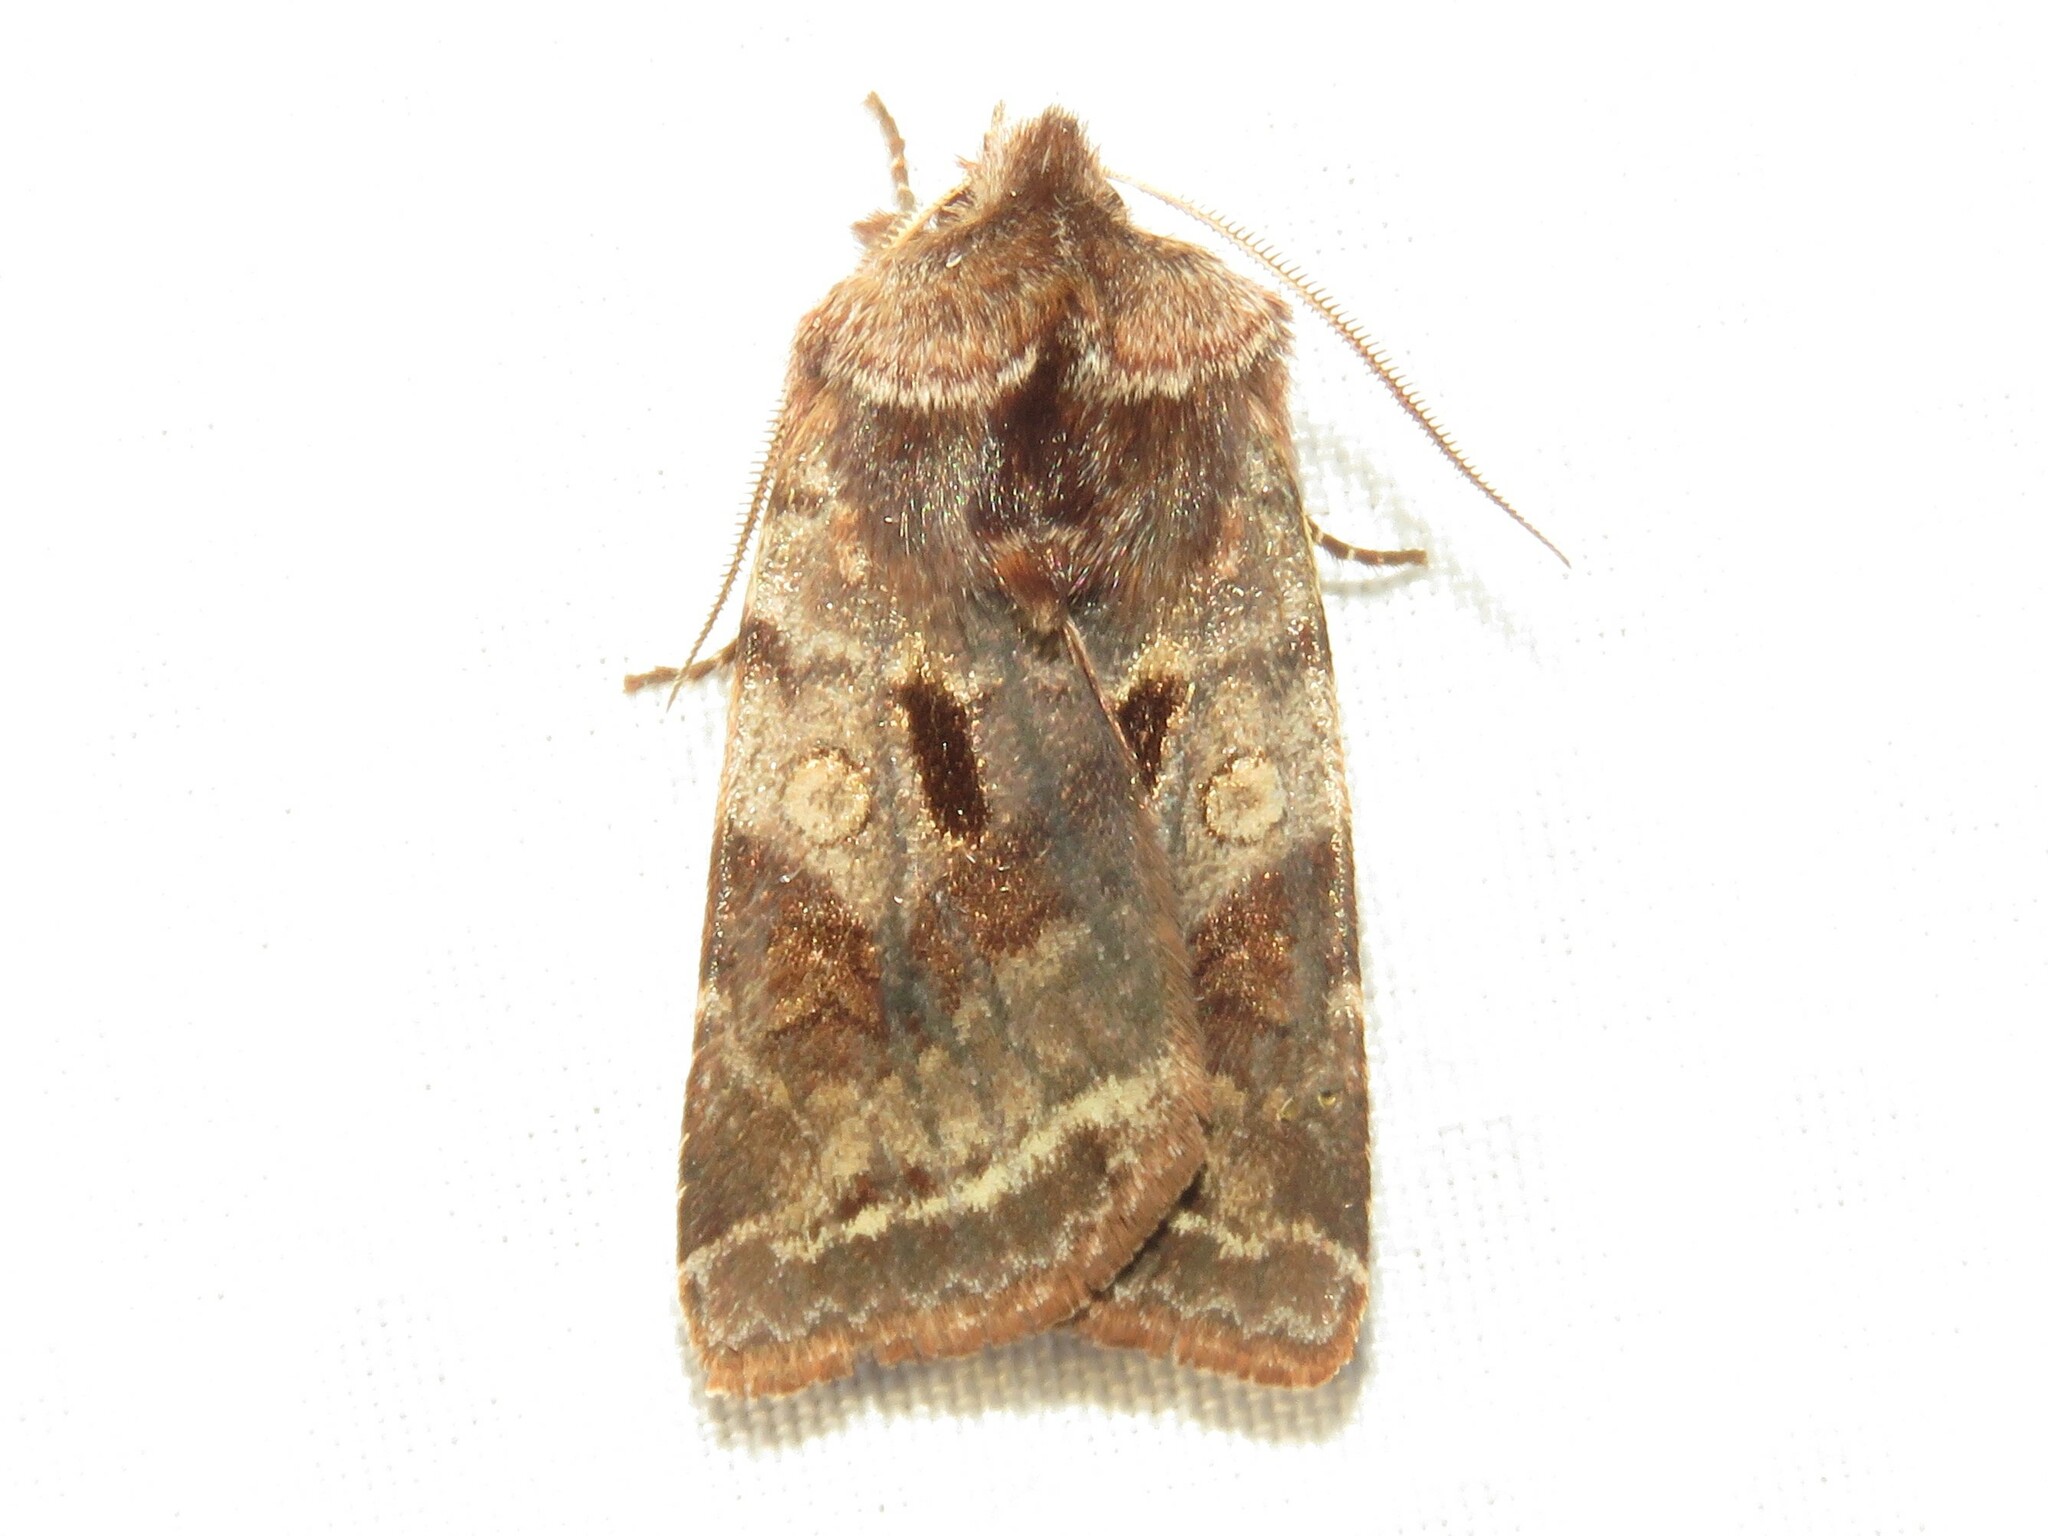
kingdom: Animalia
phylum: Arthropoda
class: Insecta
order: Lepidoptera
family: Noctuidae
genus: Cerastis
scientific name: Cerastis salicarum
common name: Willow dart
